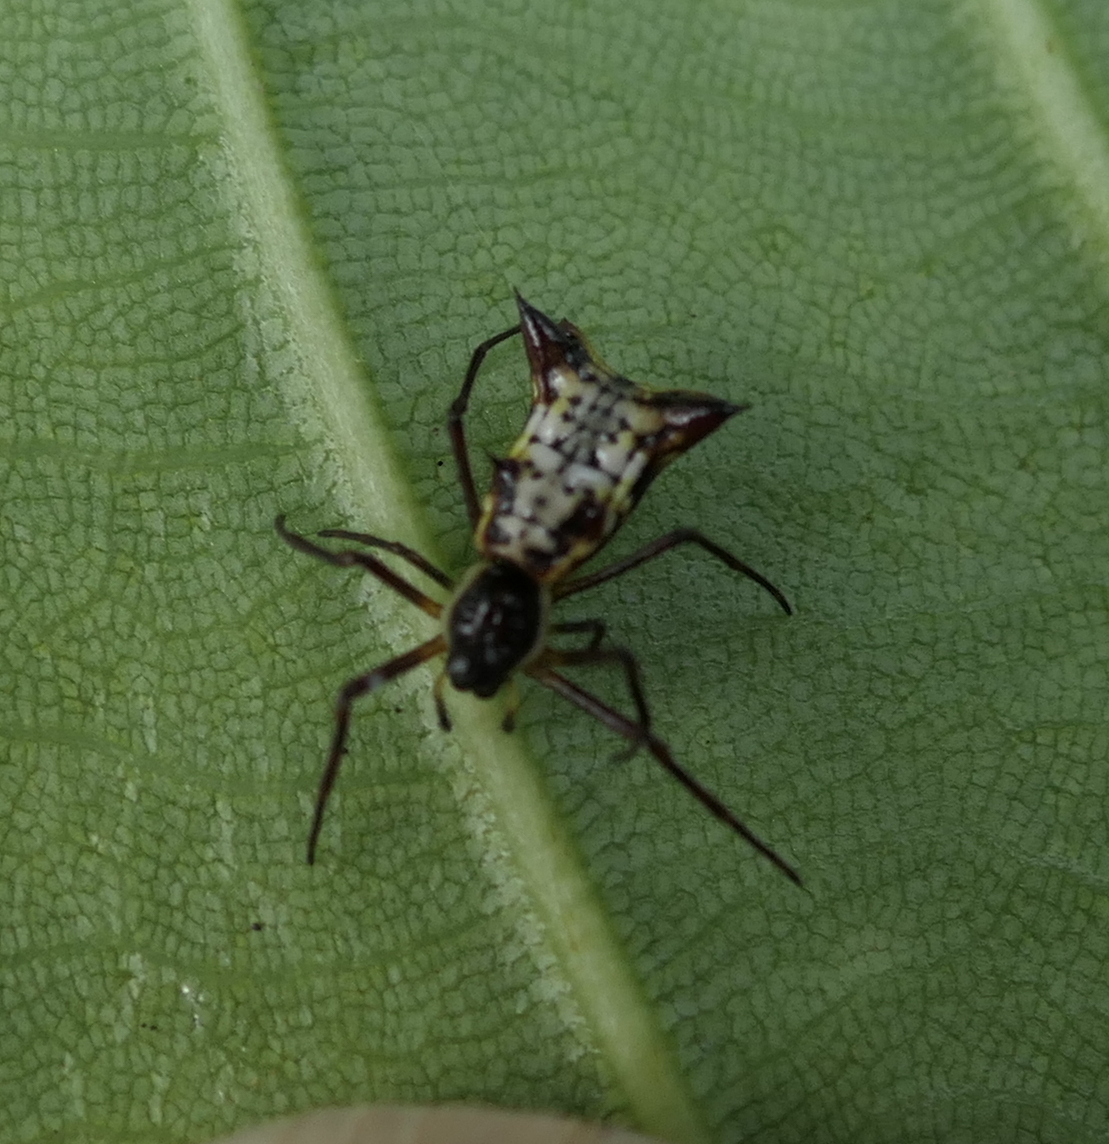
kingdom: Animalia
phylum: Arthropoda
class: Arachnida
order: Araneae
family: Araneidae
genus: Micrathena
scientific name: Micrathena fissispina
